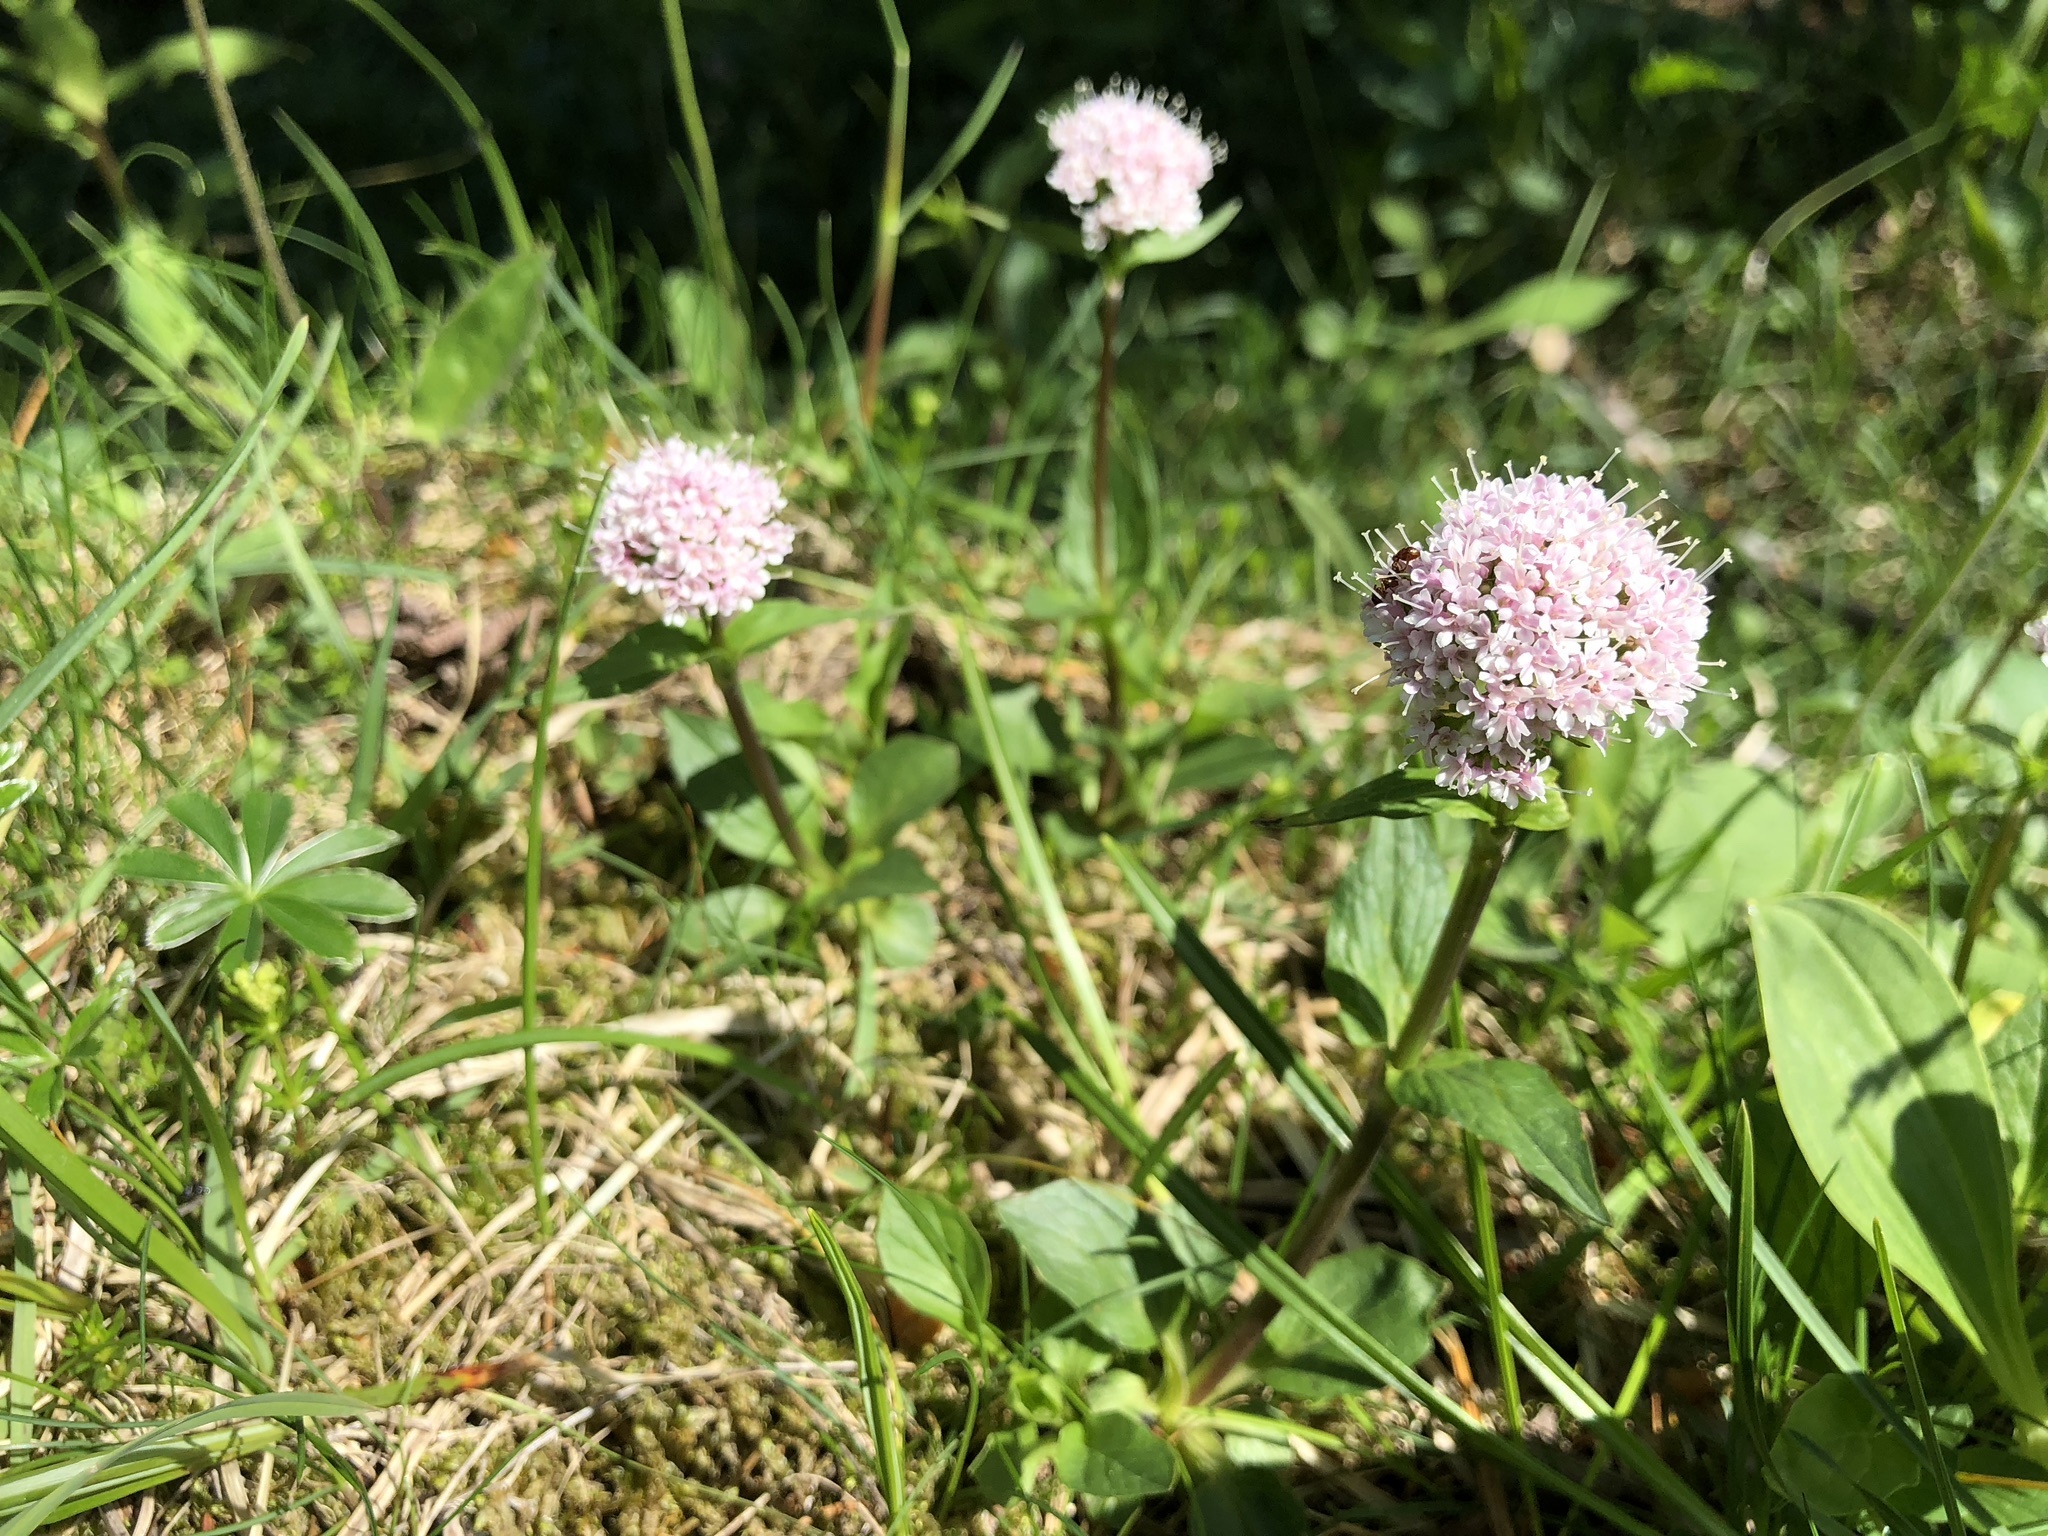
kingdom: Plantae
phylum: Tracheophyta
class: Magnoliopsida
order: Dipsacales
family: Caprifoliaceae
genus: Valeriana
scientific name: Valeriana montana
